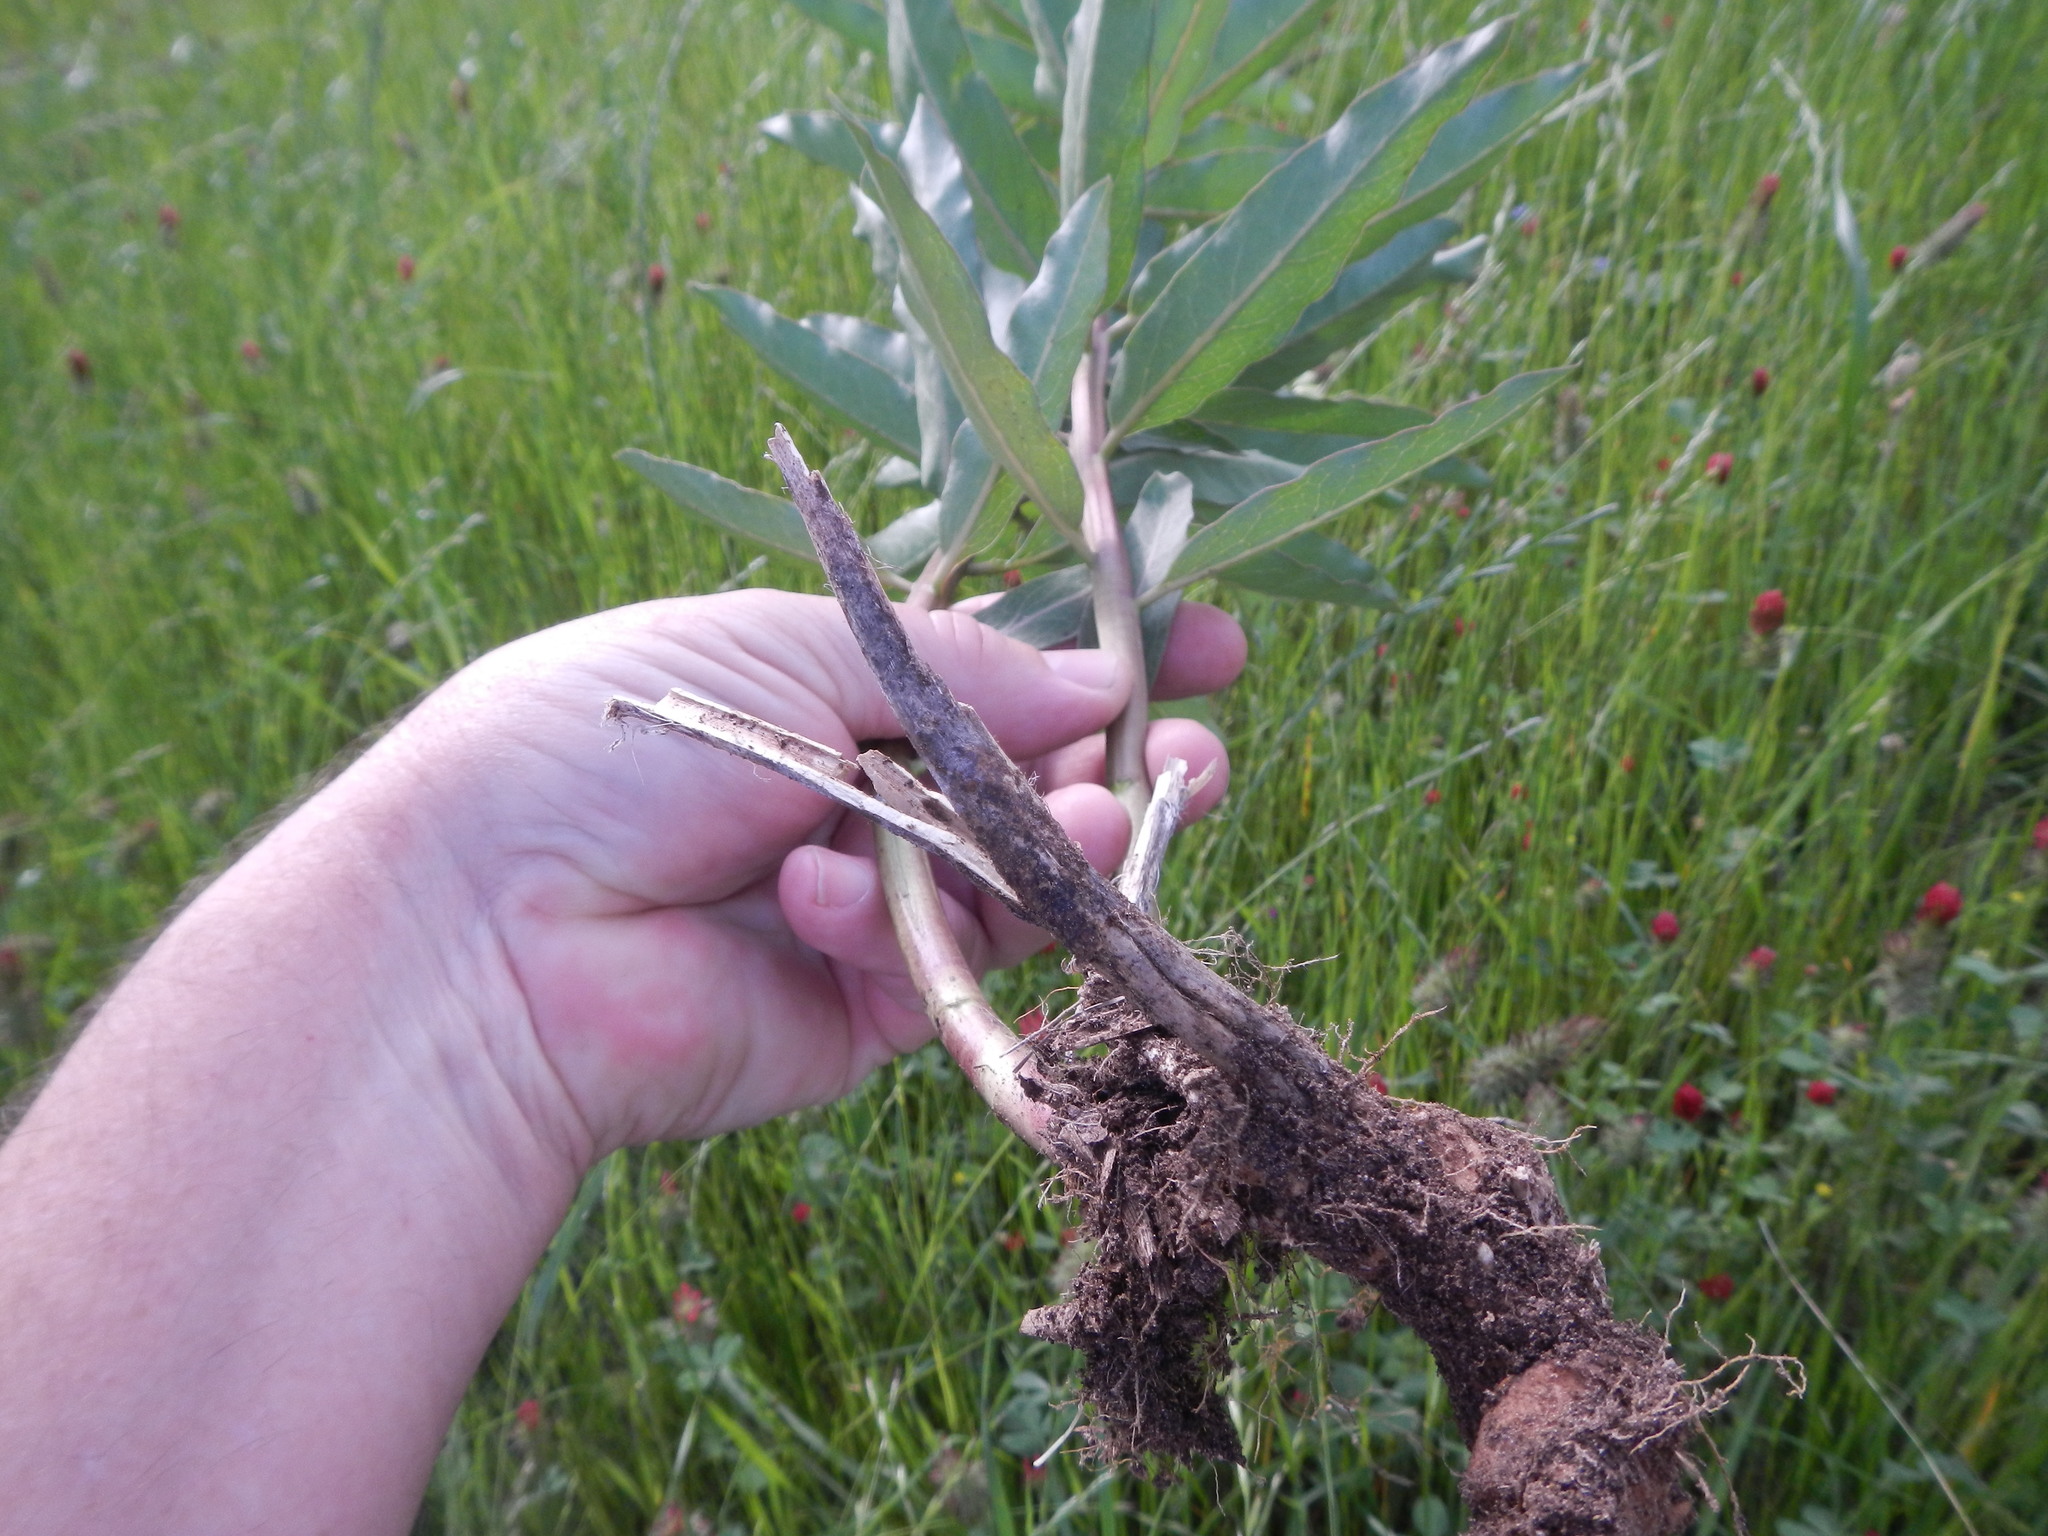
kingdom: Plantae
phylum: Tracheophyta
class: Magnoliopsida
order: Gentianales
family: Apocynaceae
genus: Asclepias
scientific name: Asclepias viridis
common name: Antelope-horns
